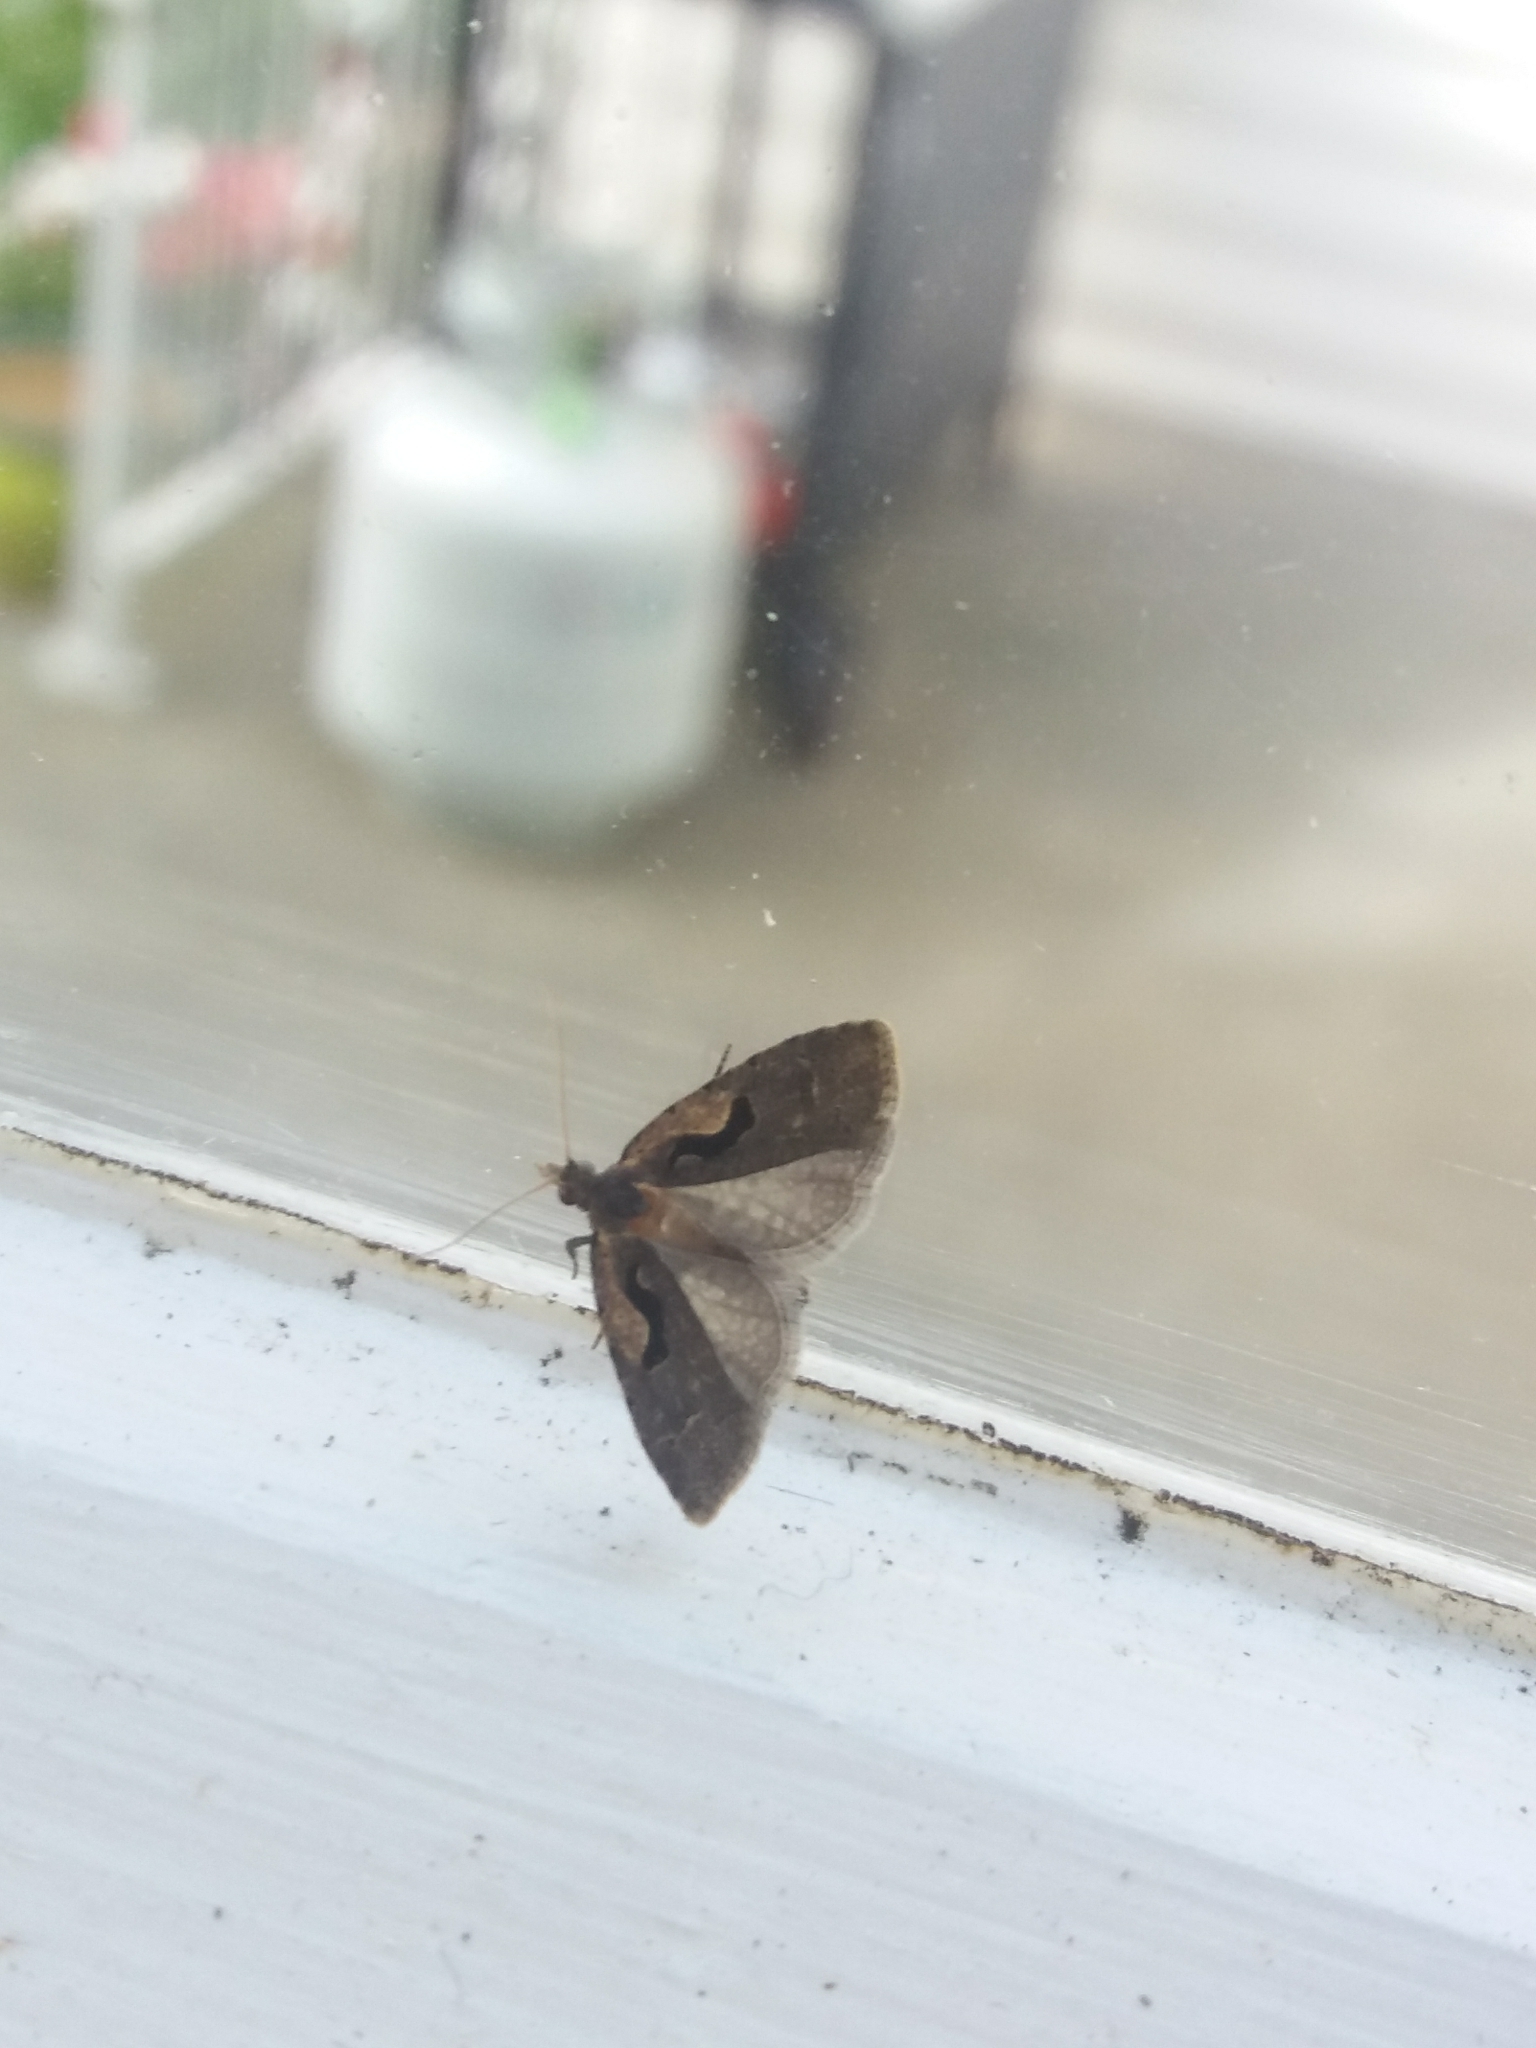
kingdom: Animalia
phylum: Arthropoda
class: Insecta
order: Lepidoptera
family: Tortricidae
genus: Cnephasia
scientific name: Cnephasia jactatana
